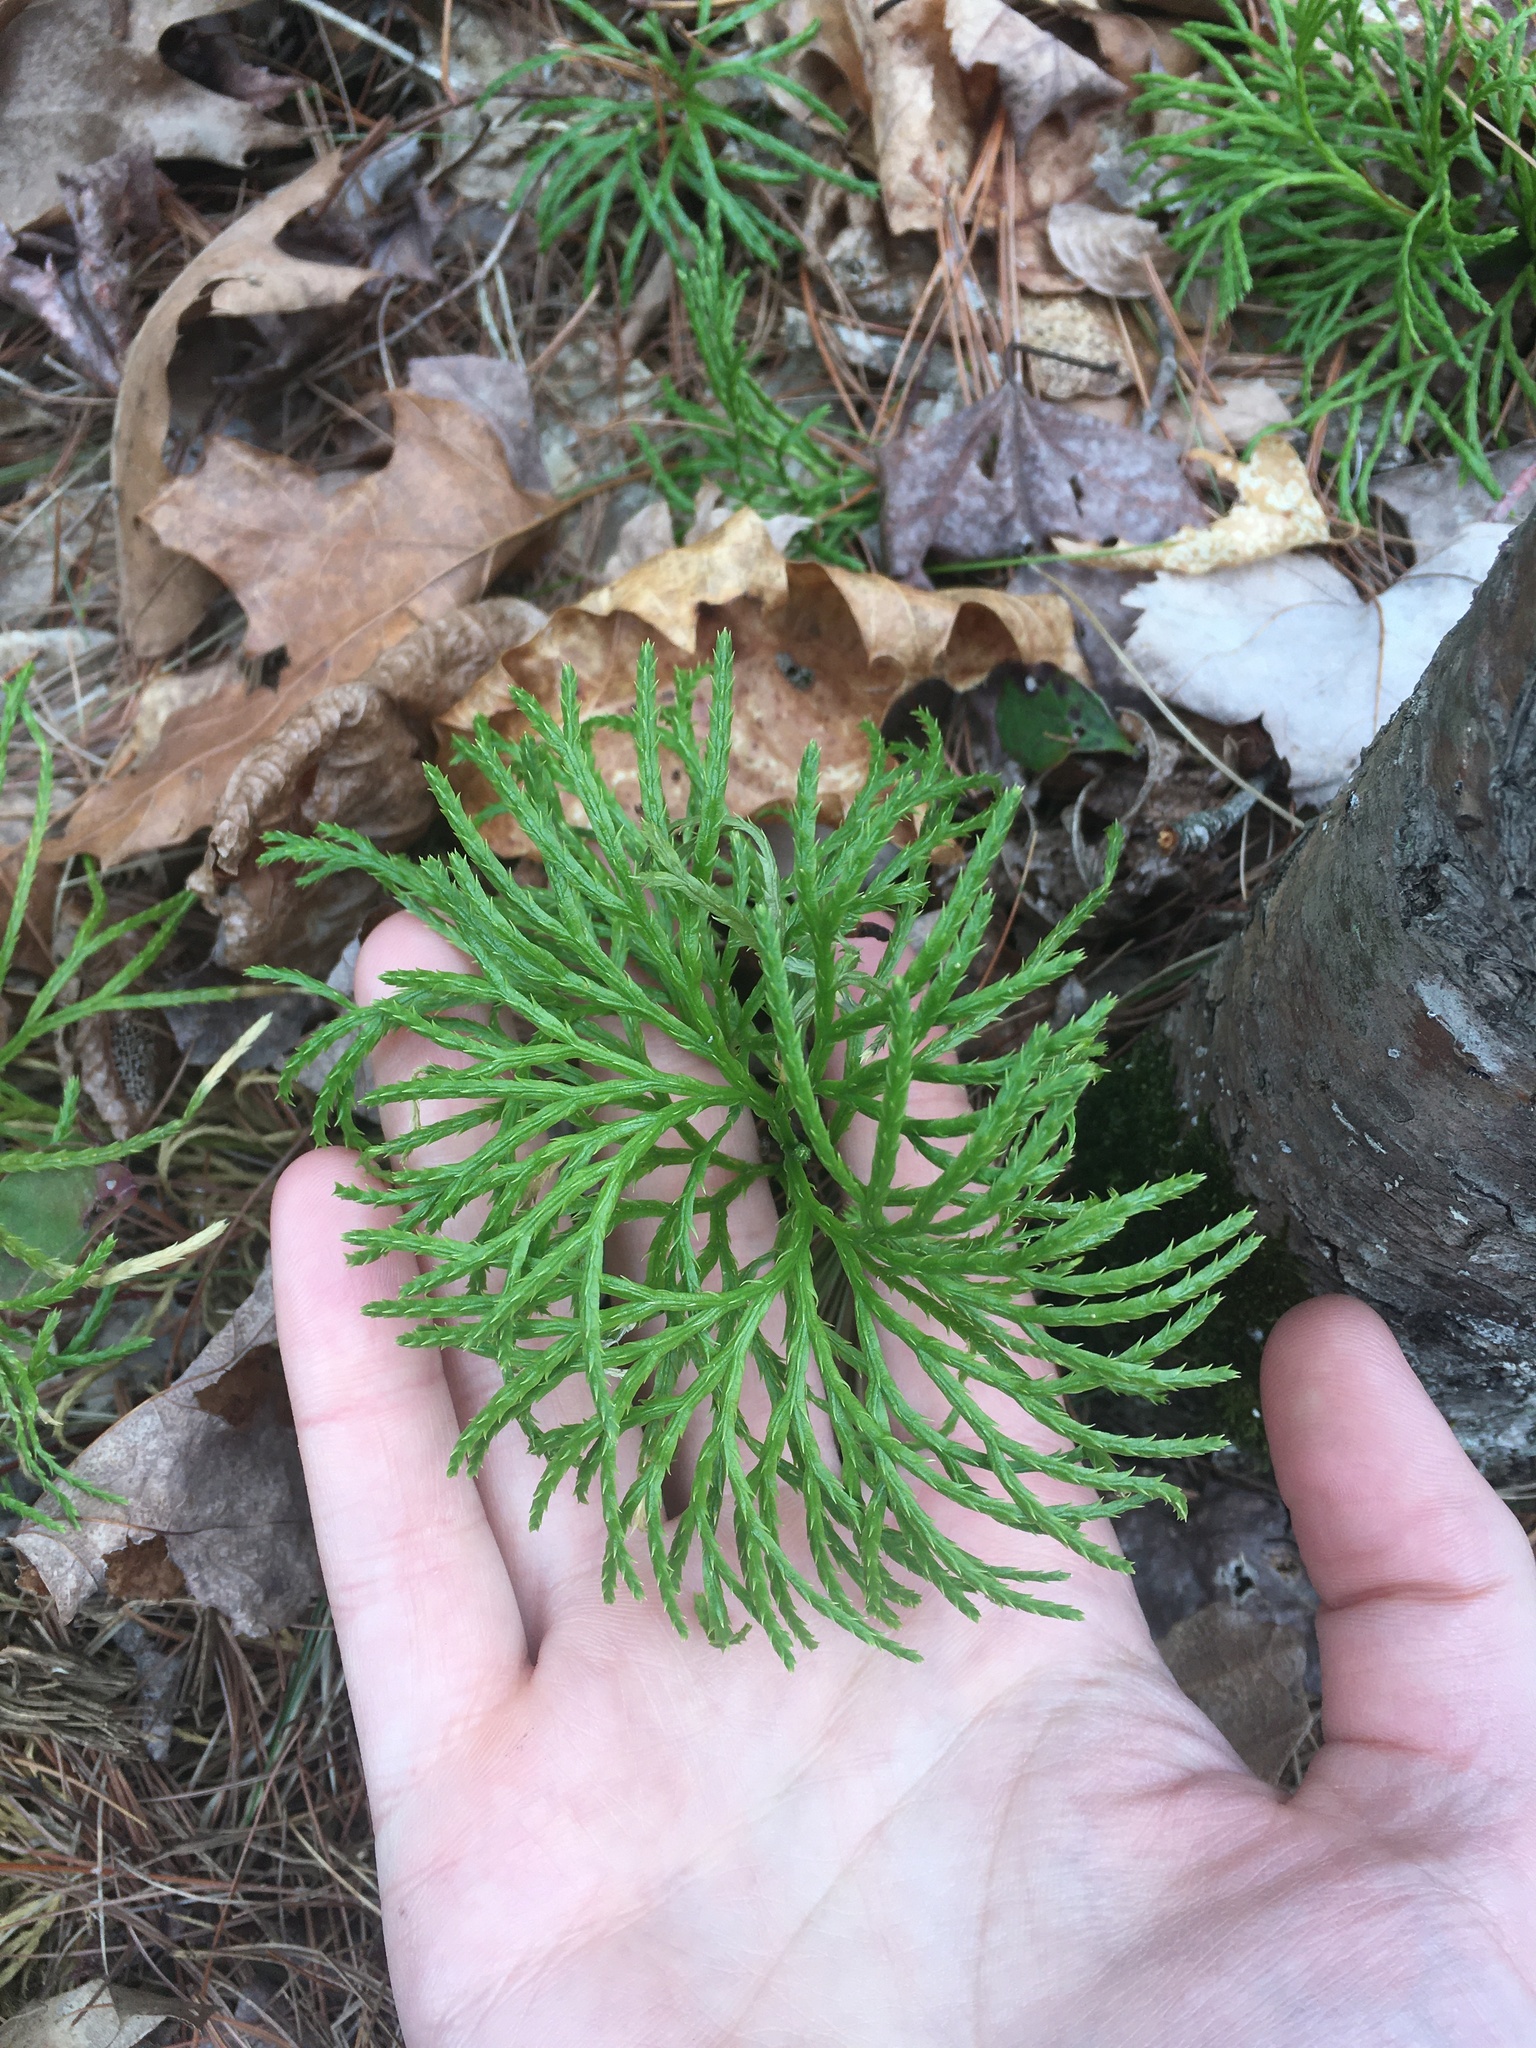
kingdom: Plantae
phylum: Tracheophyta
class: Lycopodiopsida
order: Lycopodiales
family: Lycopodiaceae
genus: Diphasiastrum
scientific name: Diphasiastrum digitatum
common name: Southern running-pine
